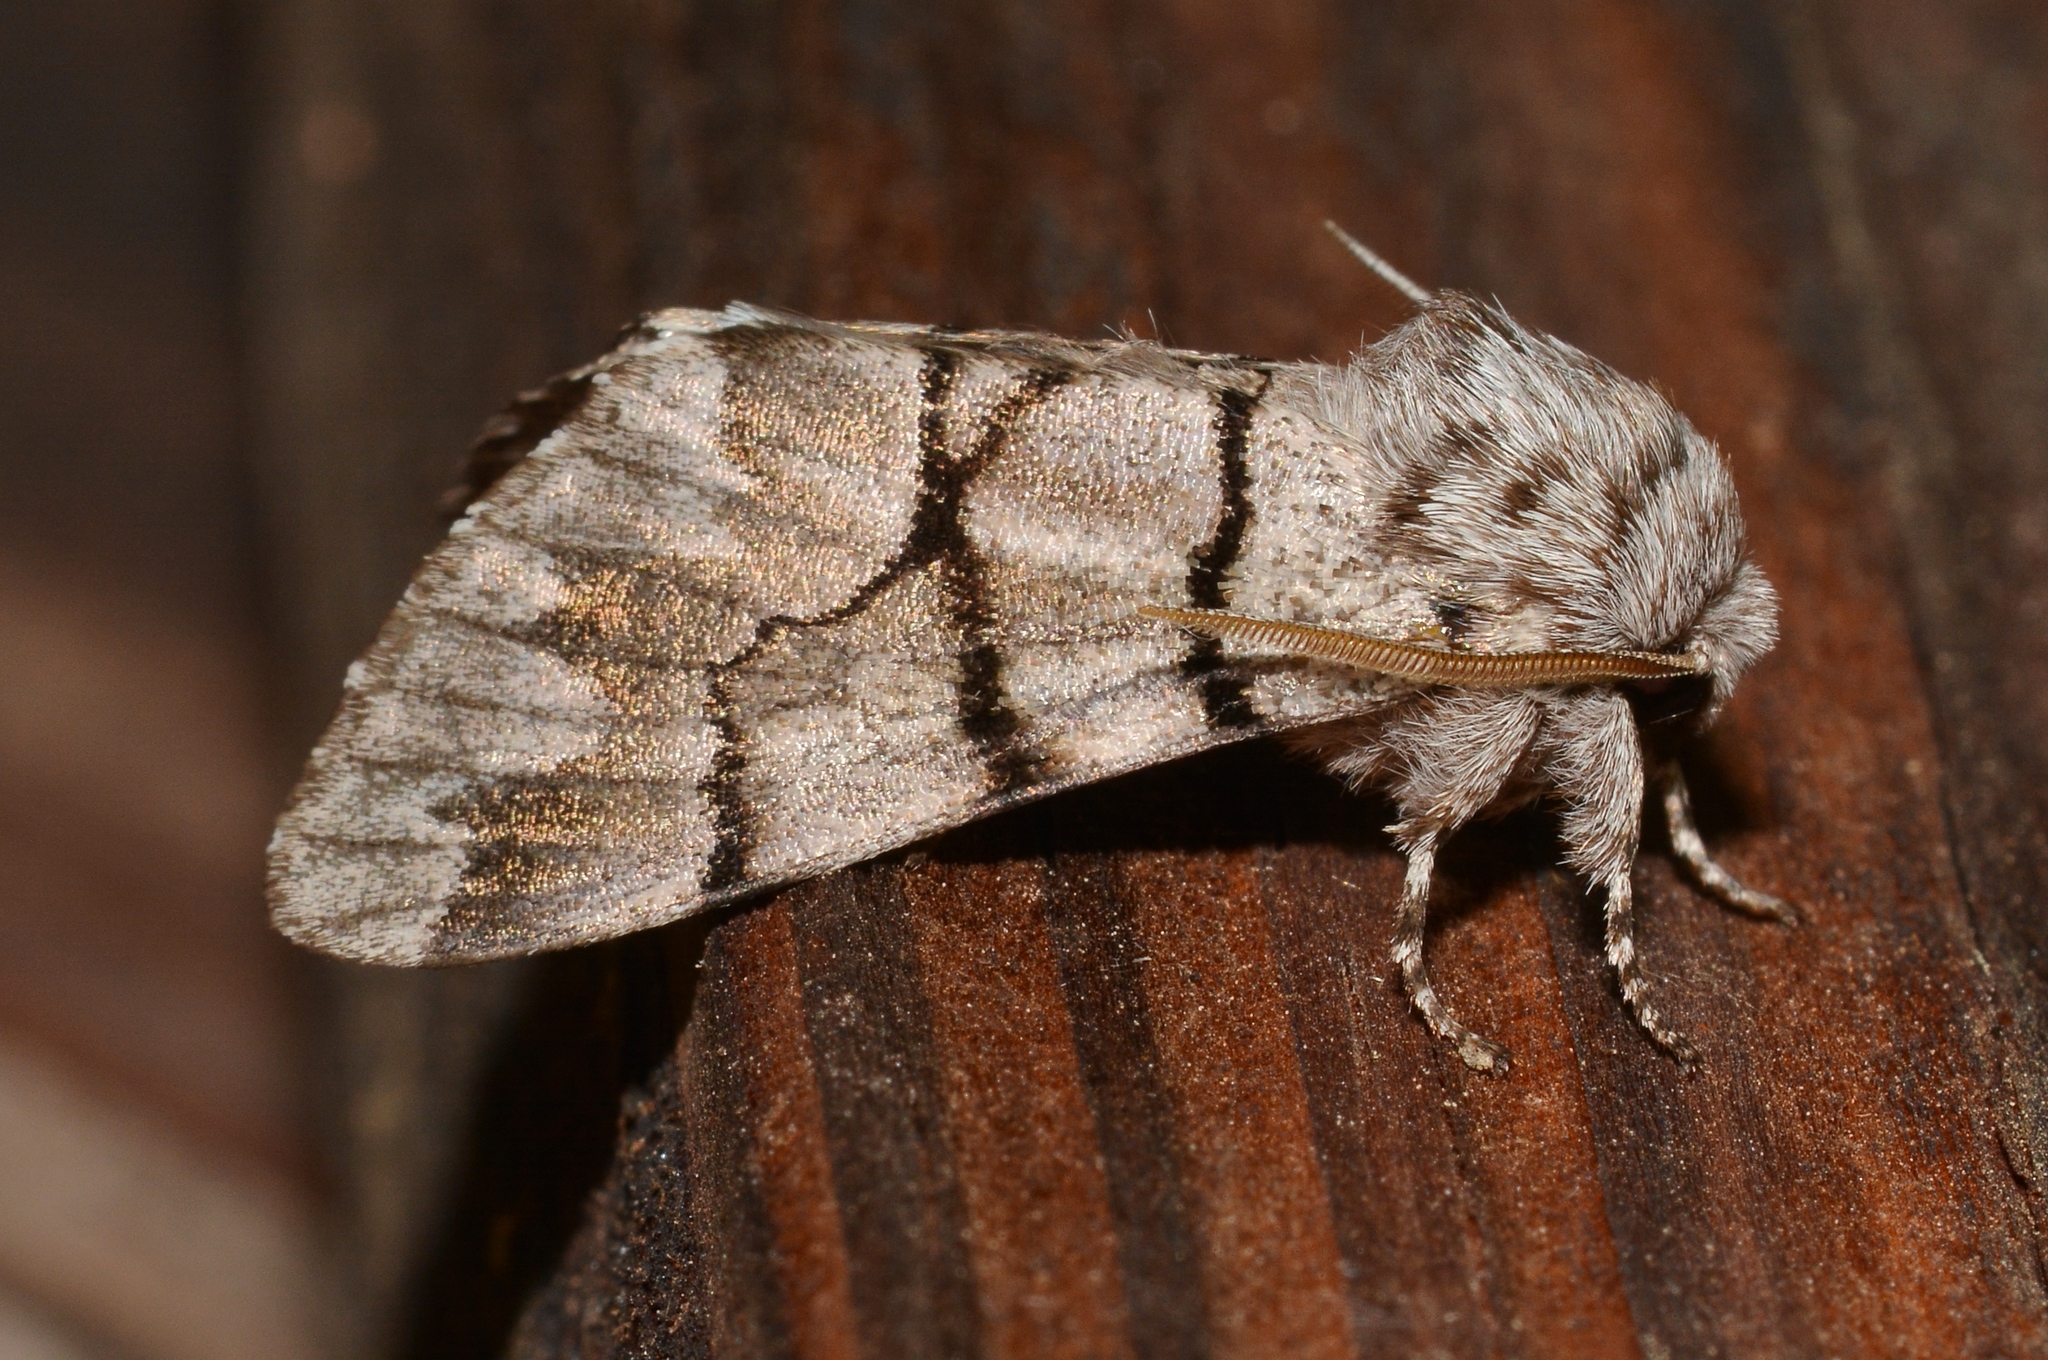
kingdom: Animalia
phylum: Arthropoda
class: Insecta
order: Lepidoptera
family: Noctuidae
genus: Panthea
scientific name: Panthea furcilla
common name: Eastern panthea moth
